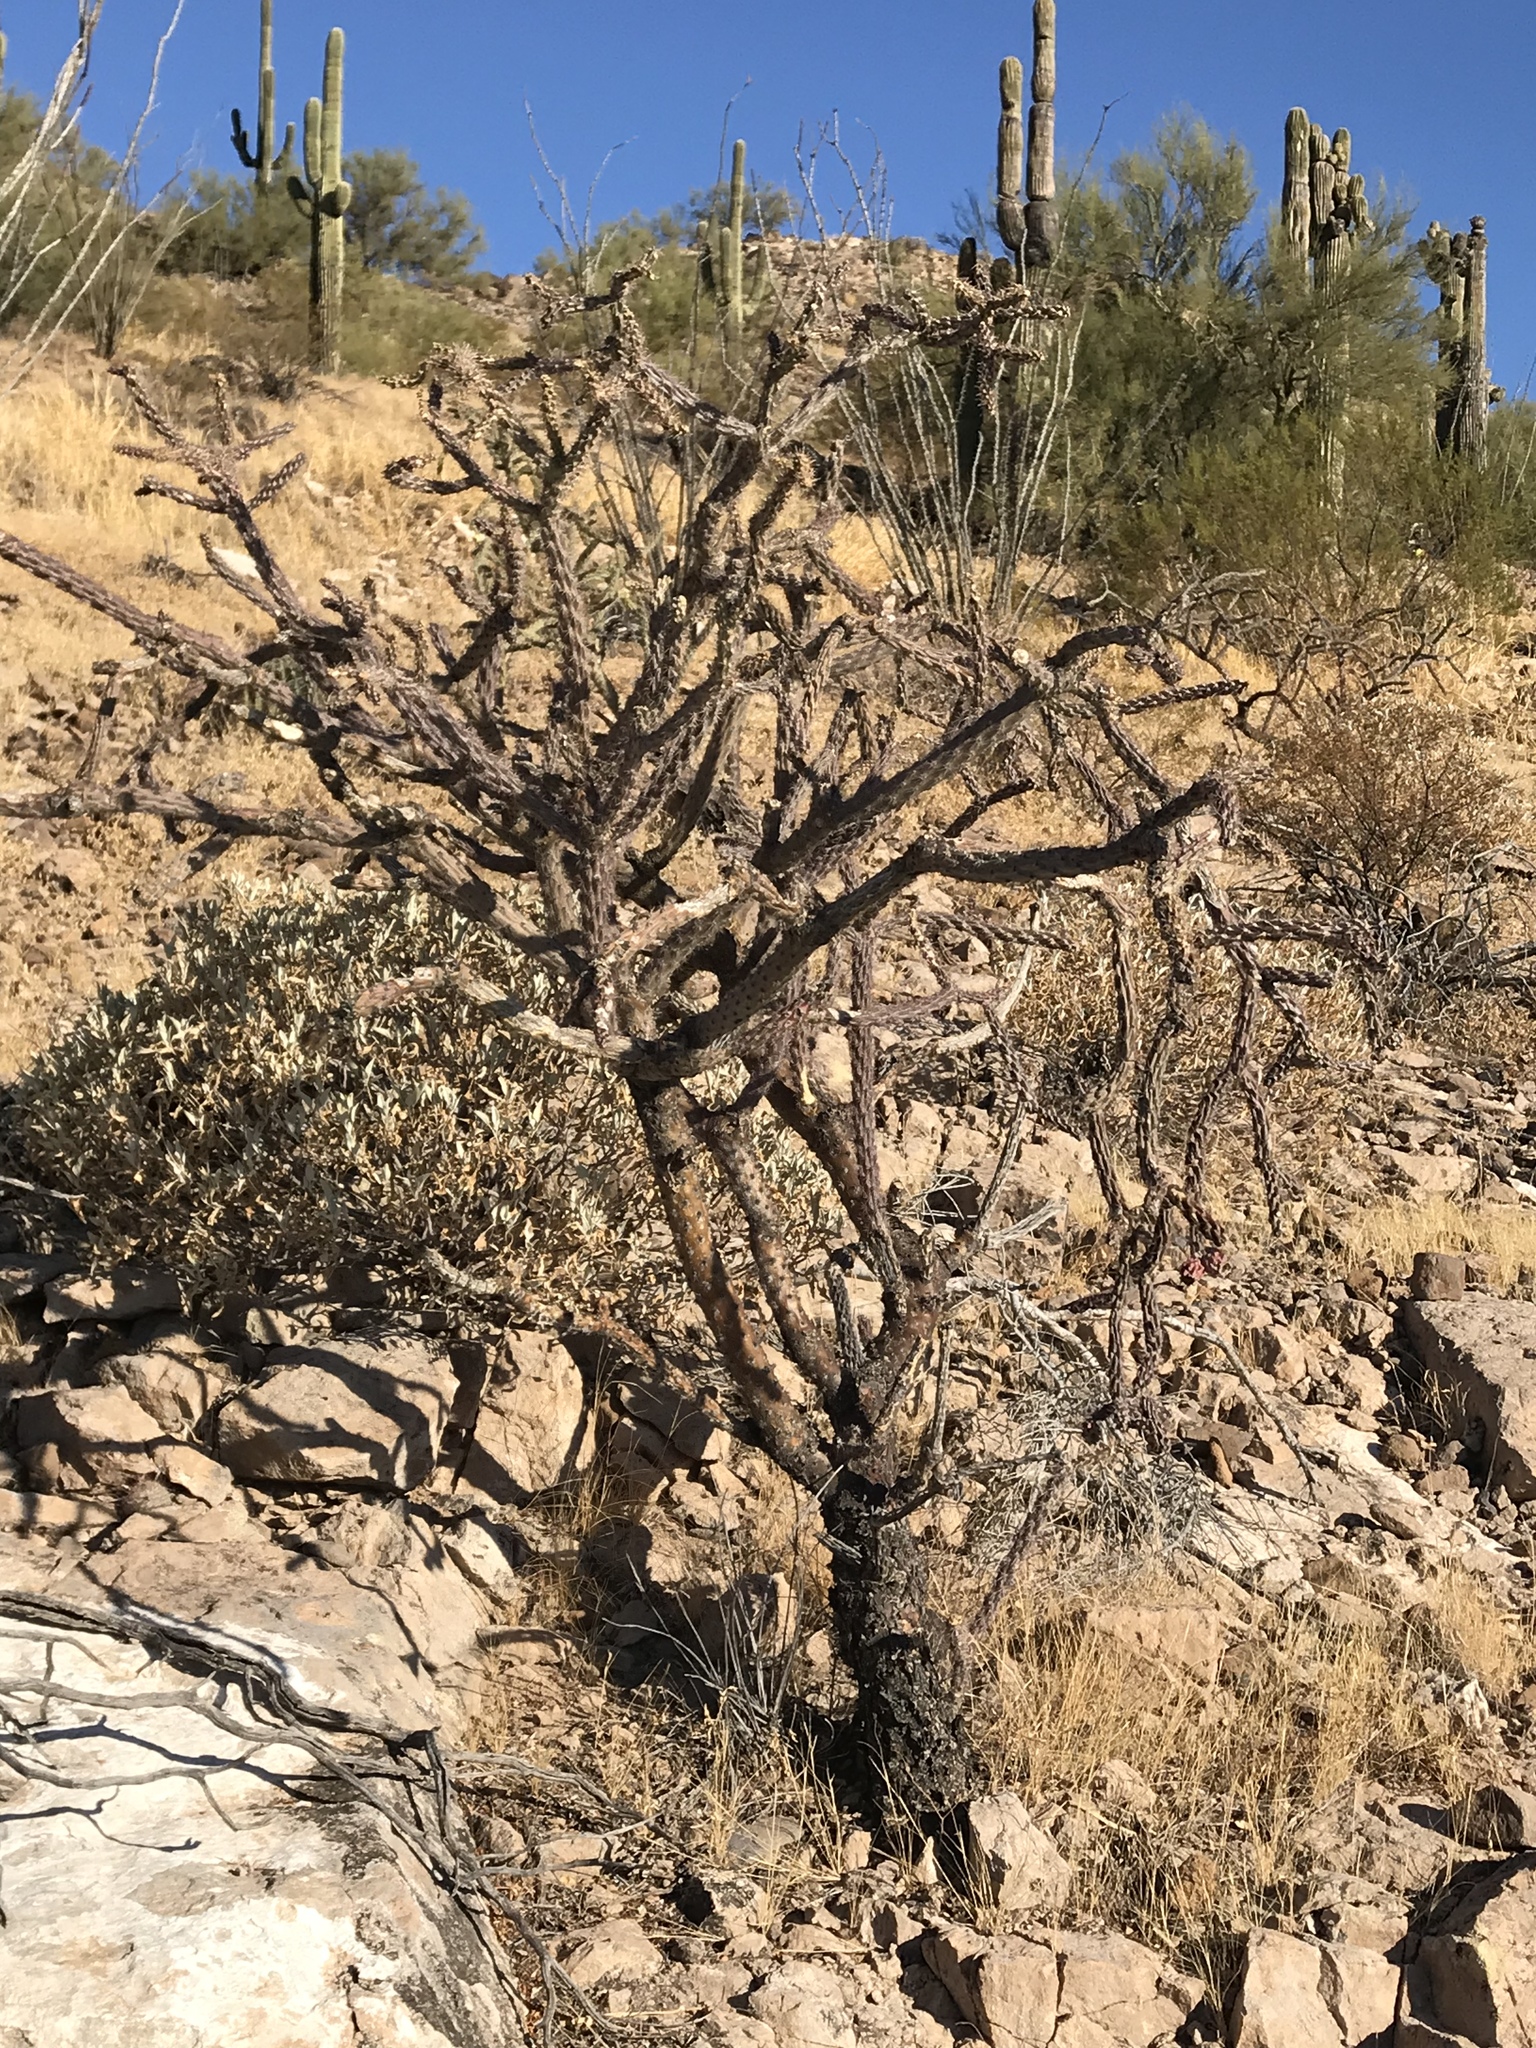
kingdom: Plantae
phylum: Tracheophyta
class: Magnoliopsida
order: Caryophyllales
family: Cactaceae
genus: Cylindropuntia
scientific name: Cylindropuntia acanthocarpa
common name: Buckhorn cholla
